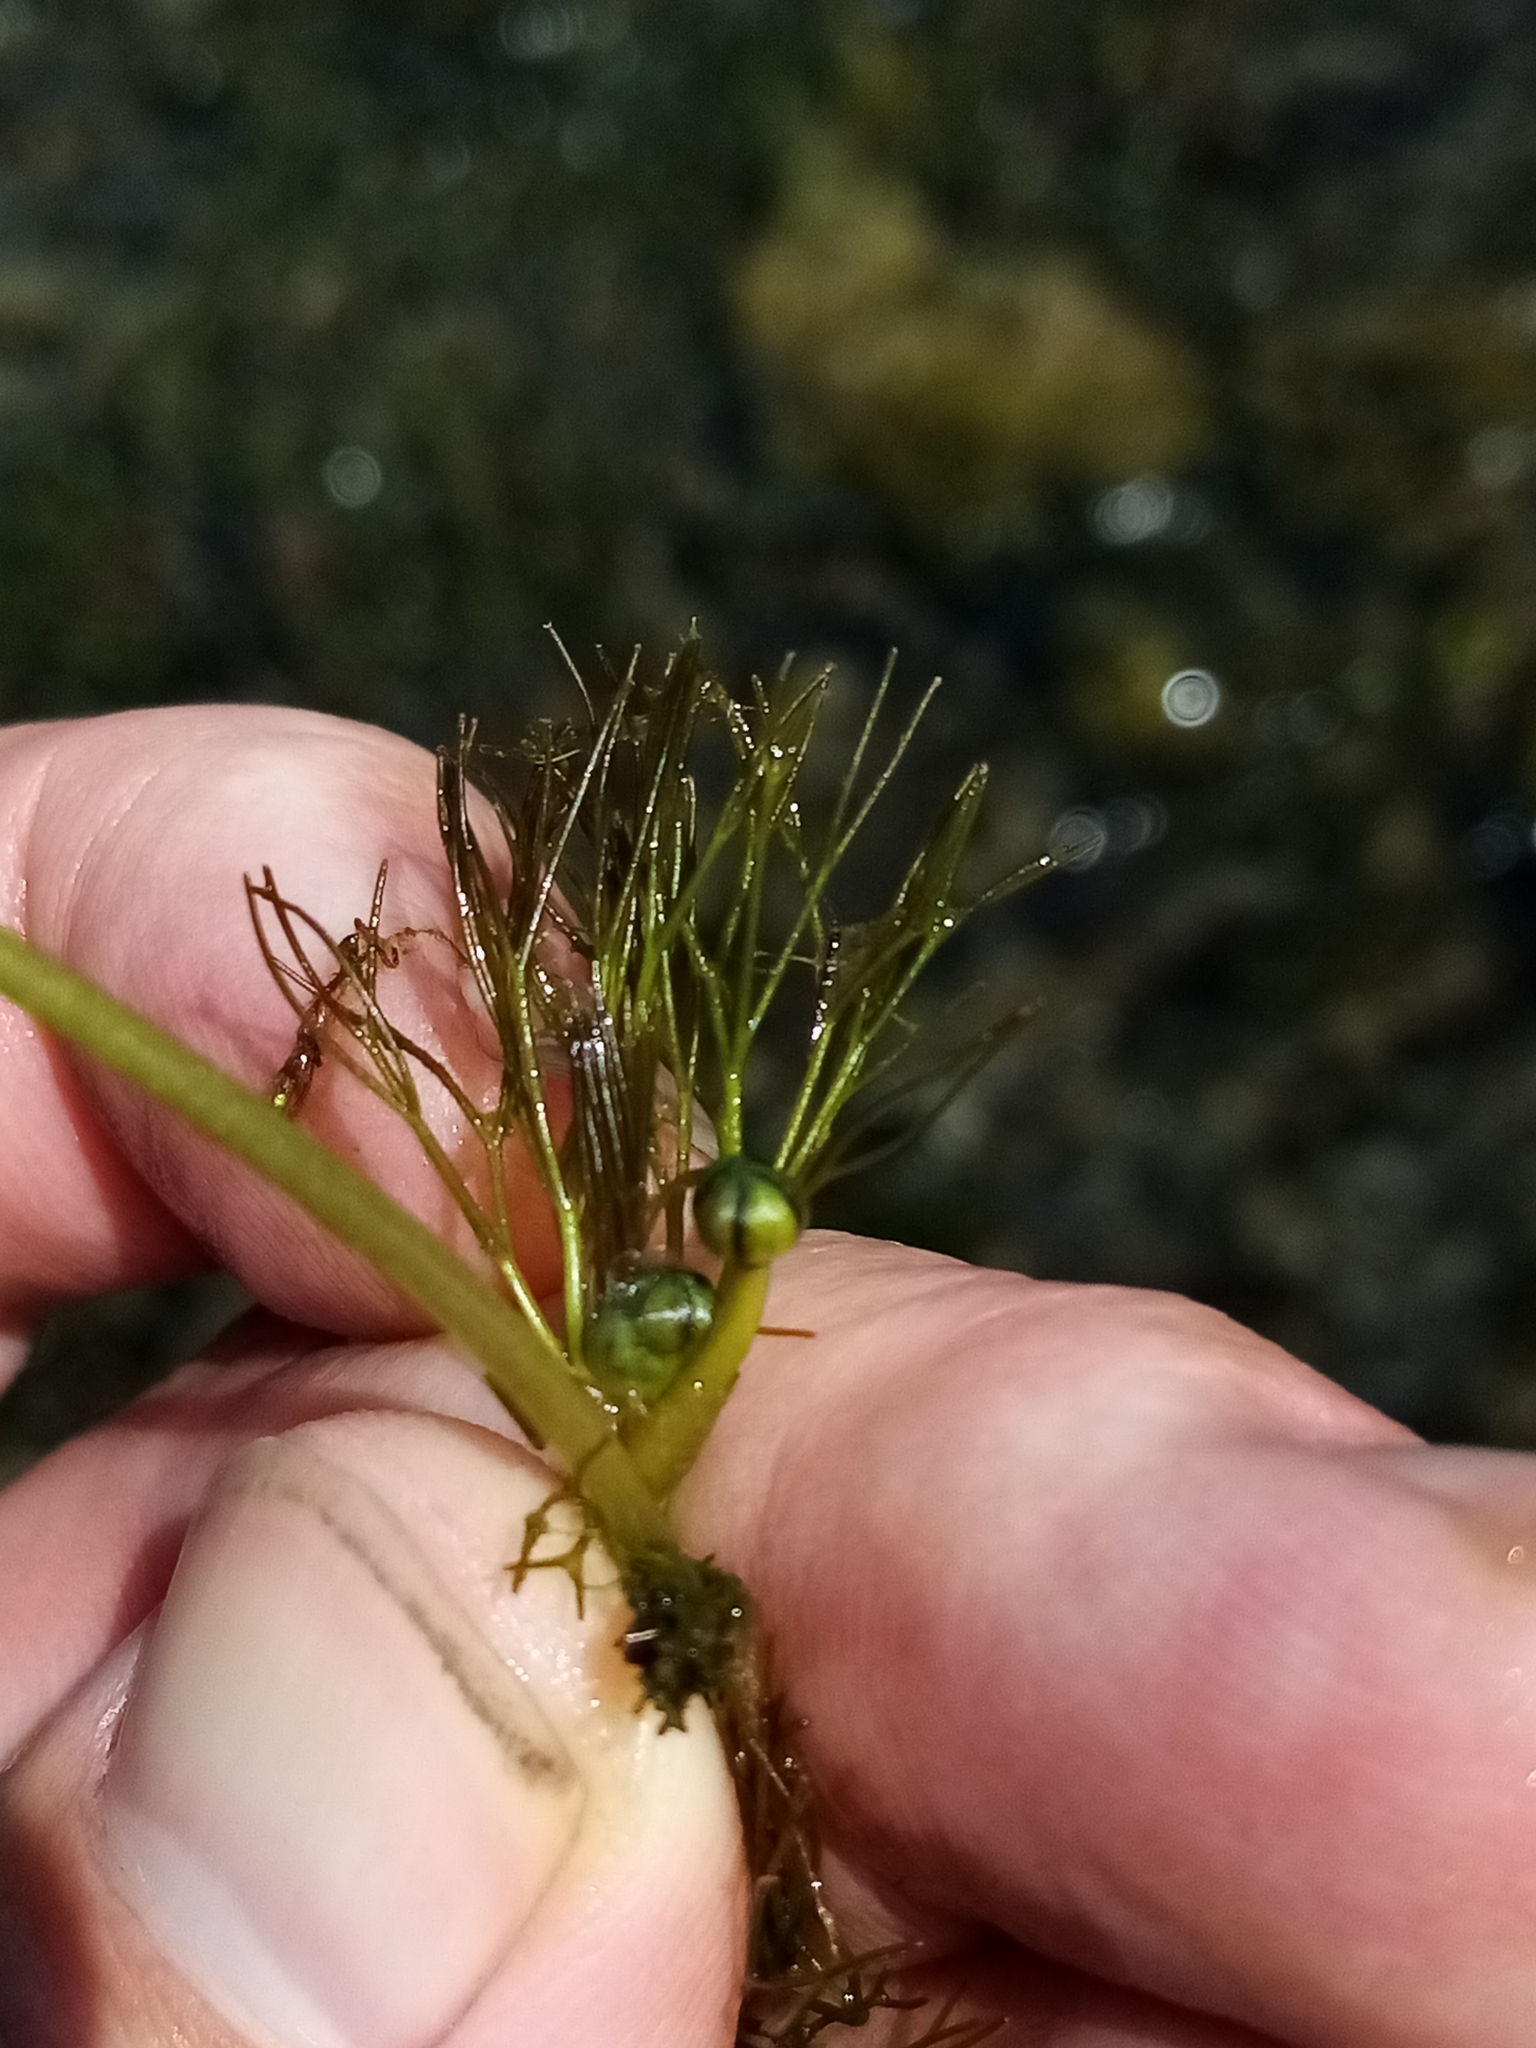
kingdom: Plantae
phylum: Tracheophyta
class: Magnoliopsida
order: Ranunculales
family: Ranunculaceae
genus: Ranunculus
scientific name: Ranunculus trichophyllus
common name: Thread-leaved water-crowfoot
